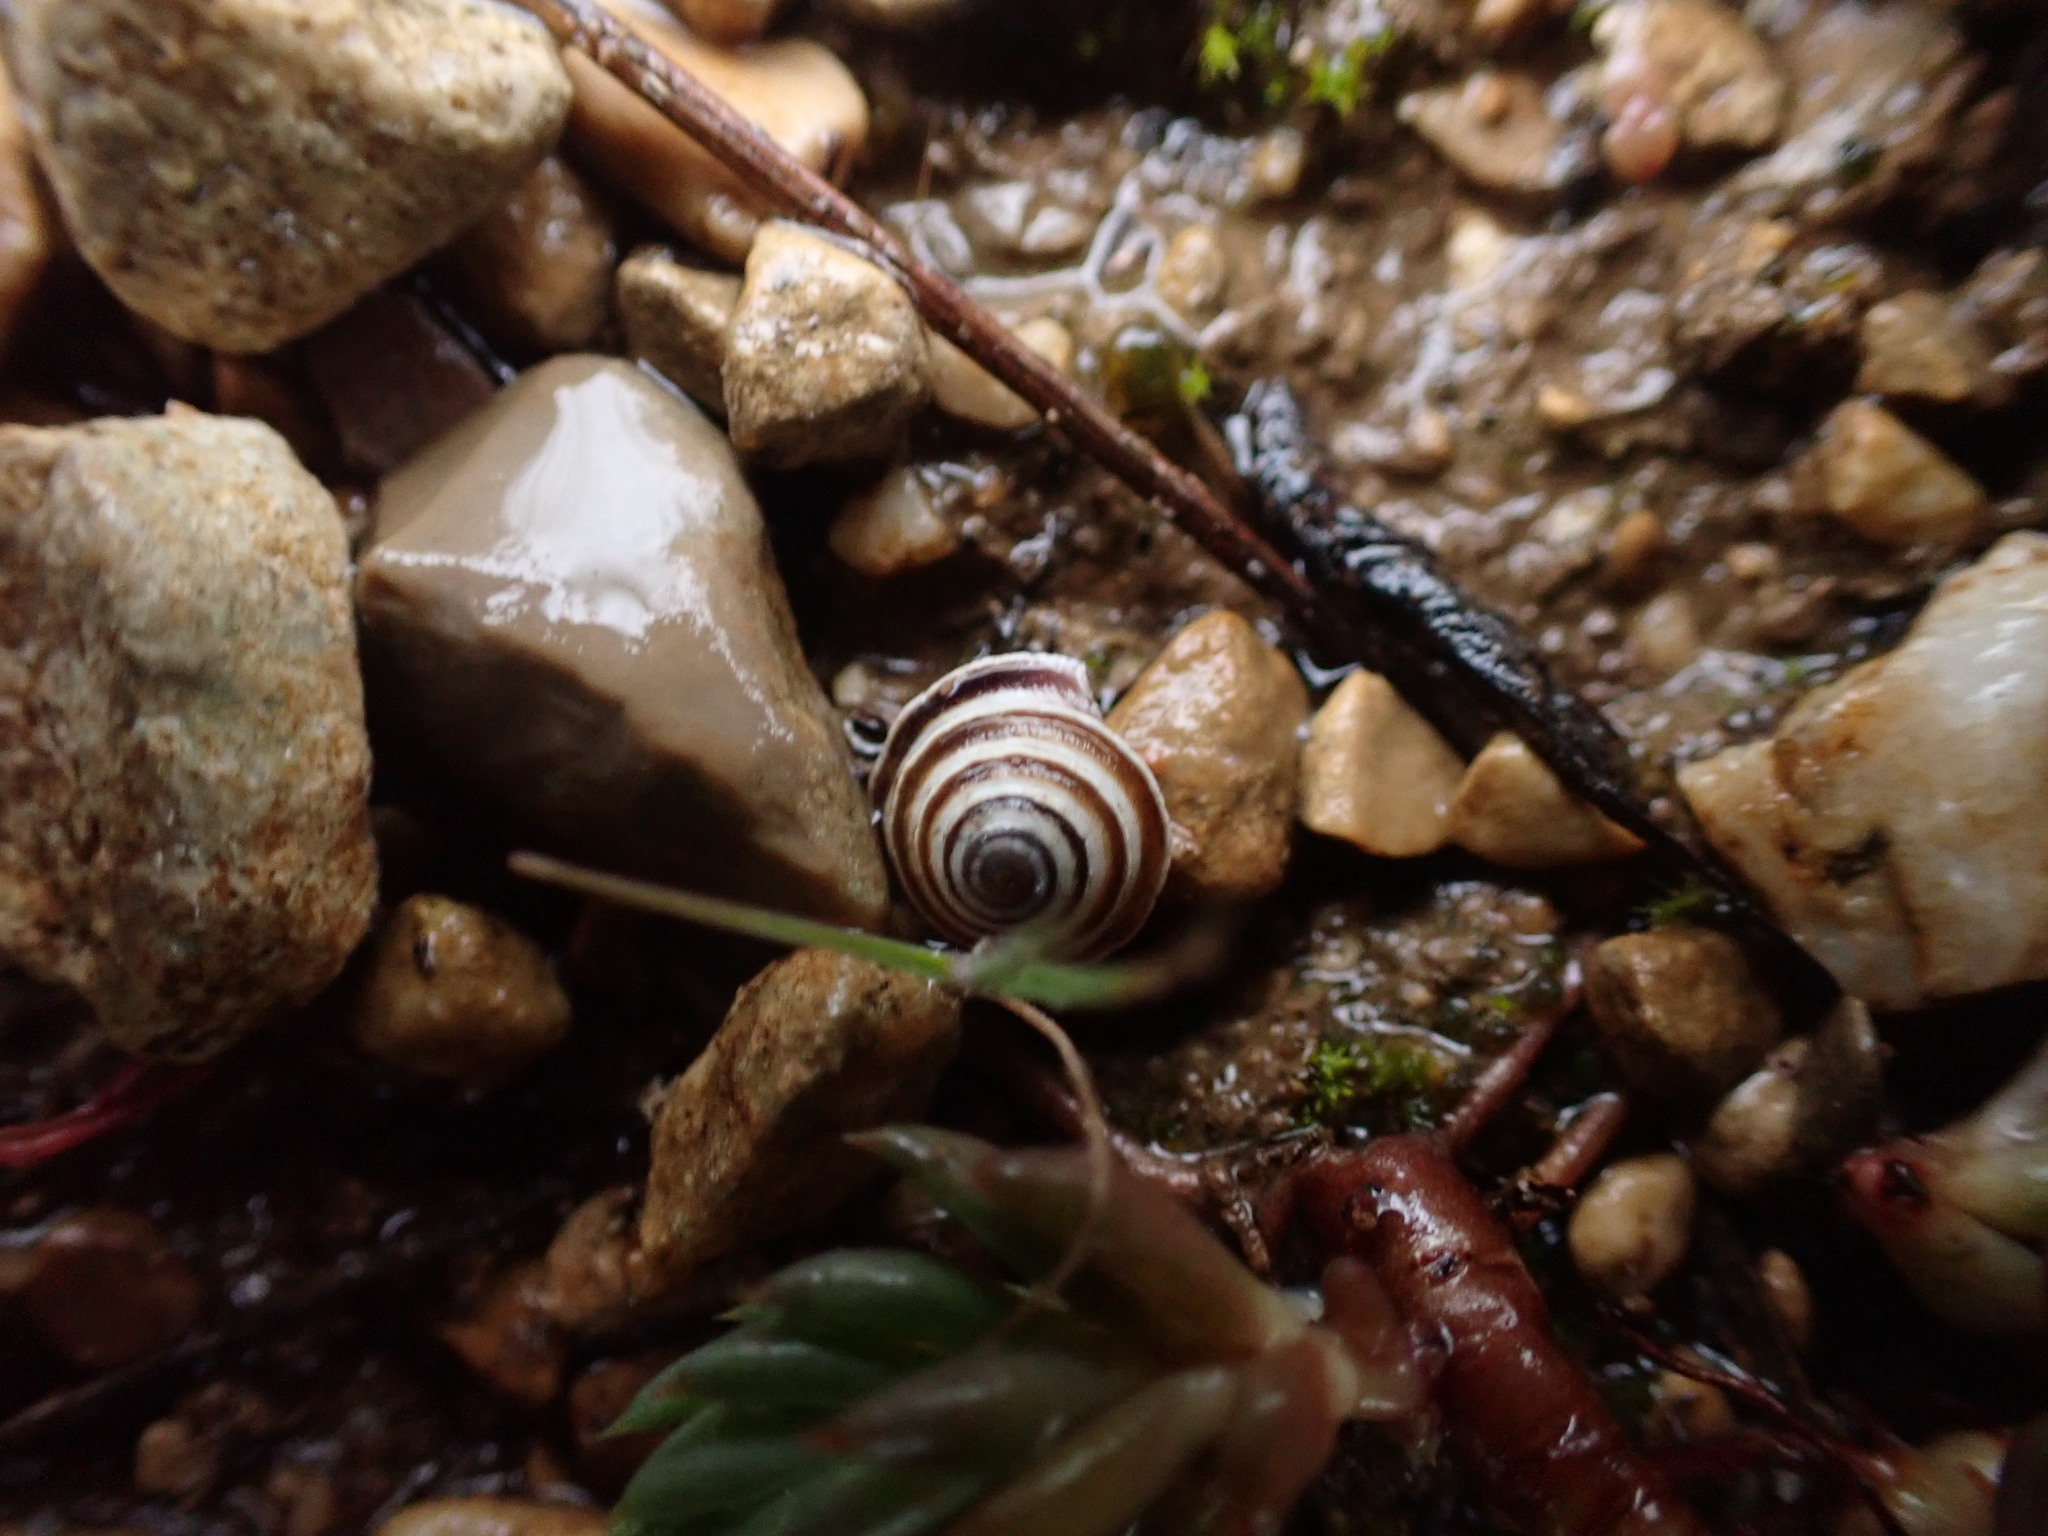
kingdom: Animalia
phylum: Mollusca
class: Gastropoda
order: Stylommatophora
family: Geomitridae
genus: Trochoidea
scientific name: Trochoidea elegans
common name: Elegant helicellid
